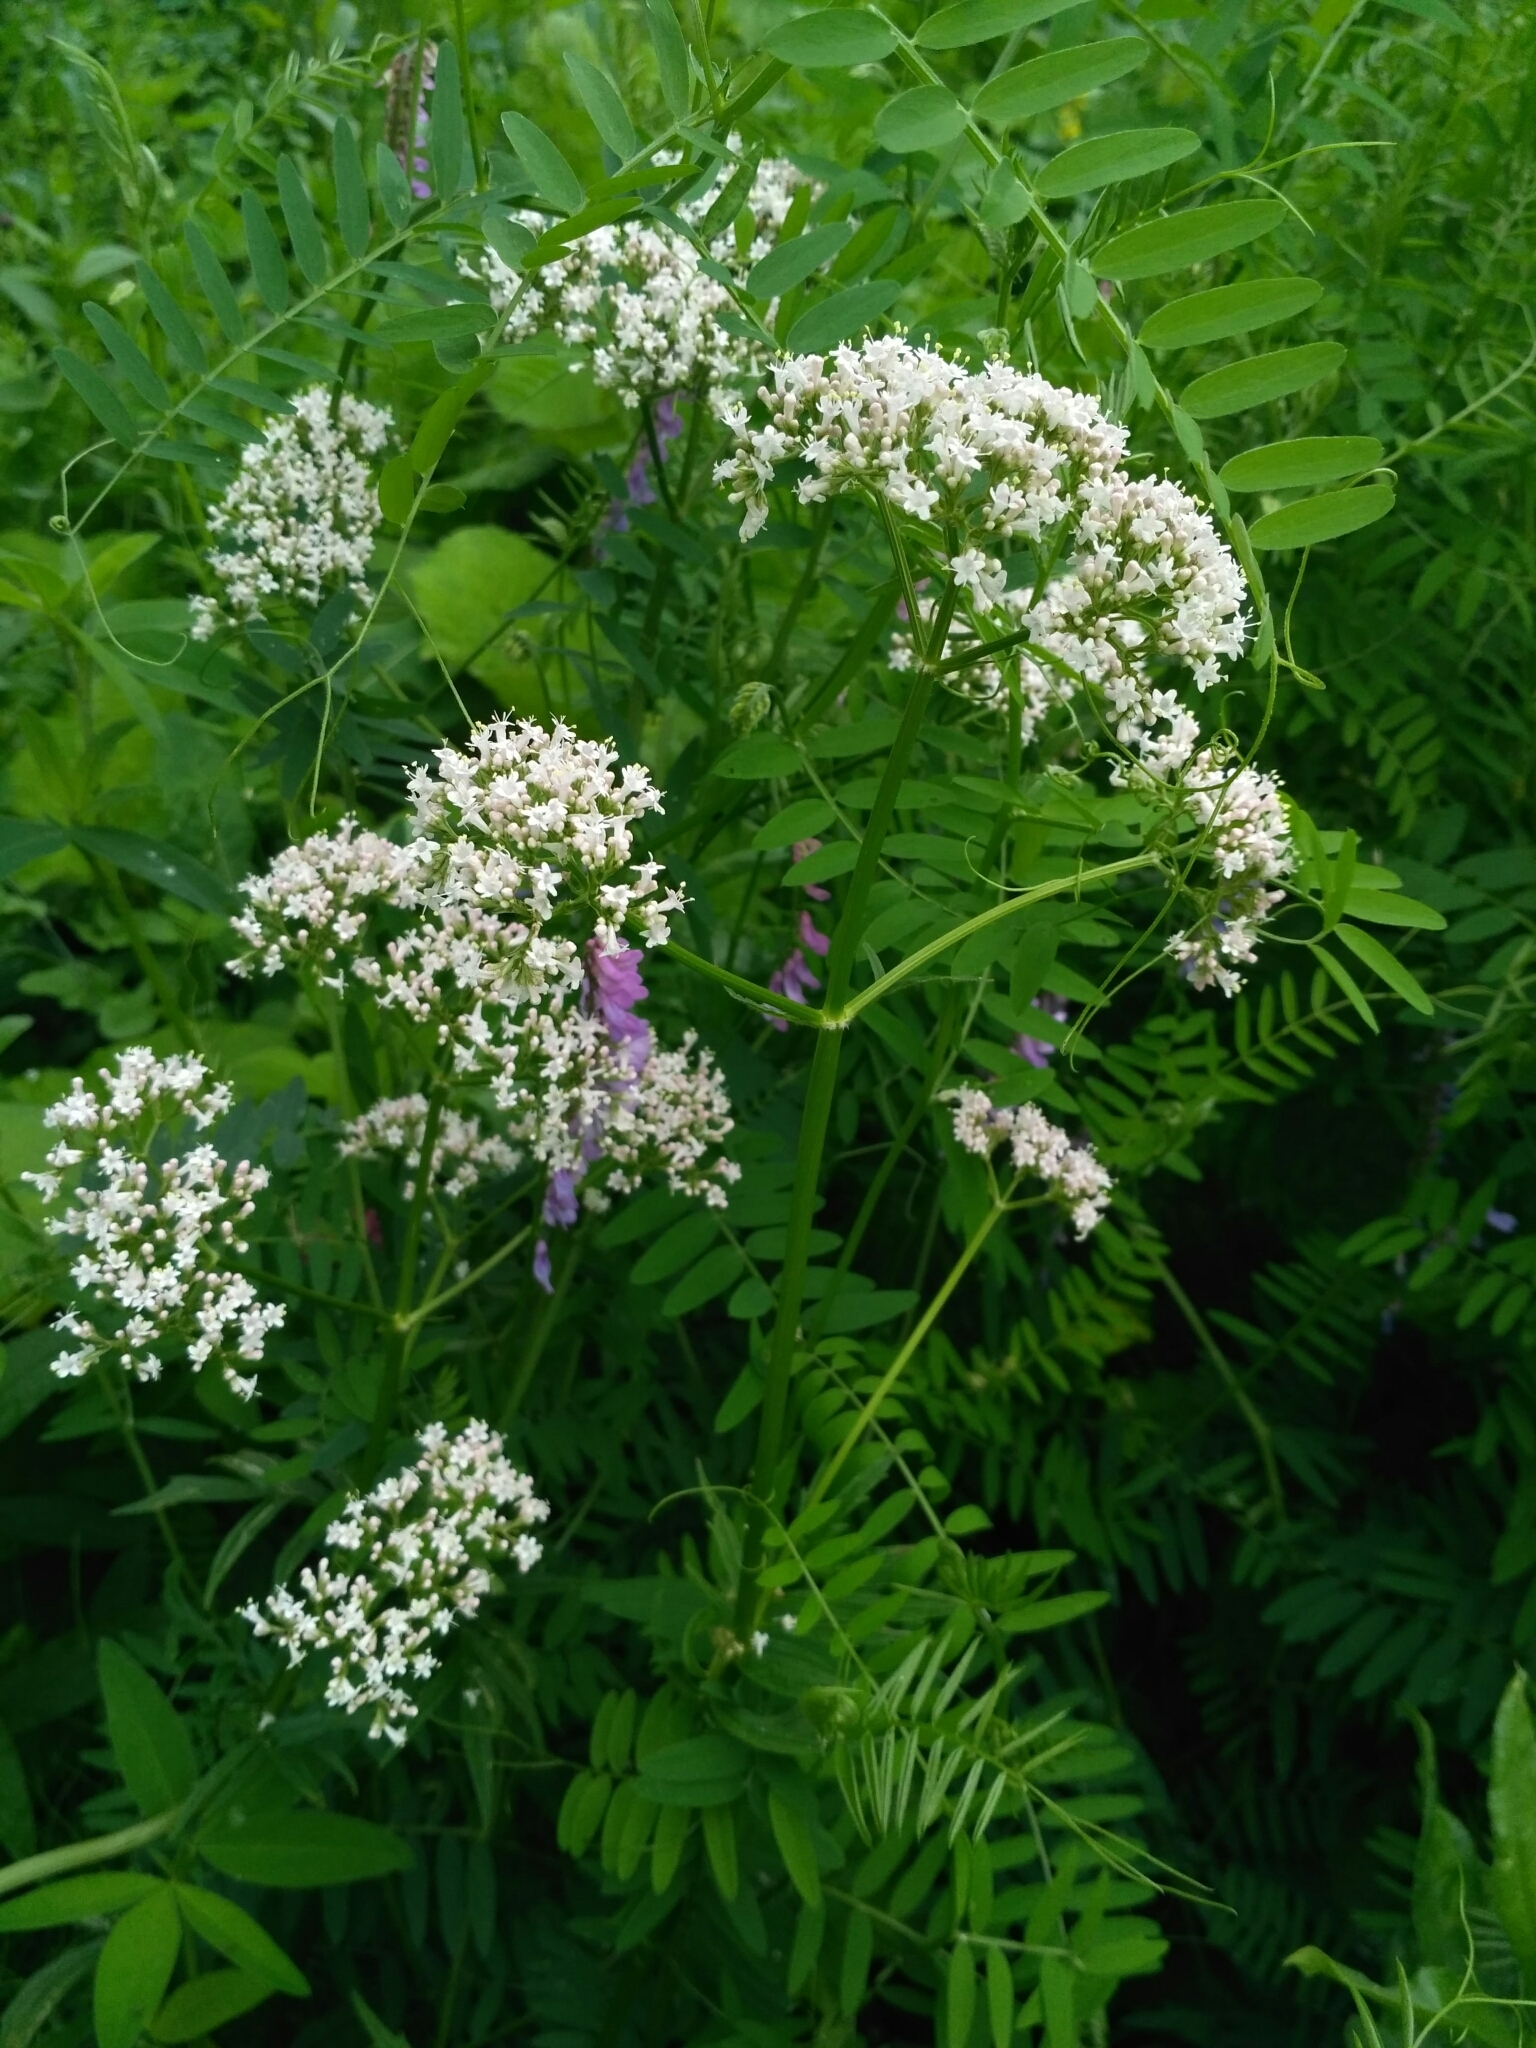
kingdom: Plantae
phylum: Tracheophyta
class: Magnoliopsida
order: Dipsacales
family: Caprifoliaceae
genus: Valeriana
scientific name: Valeriana officinalis
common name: Common valerian
